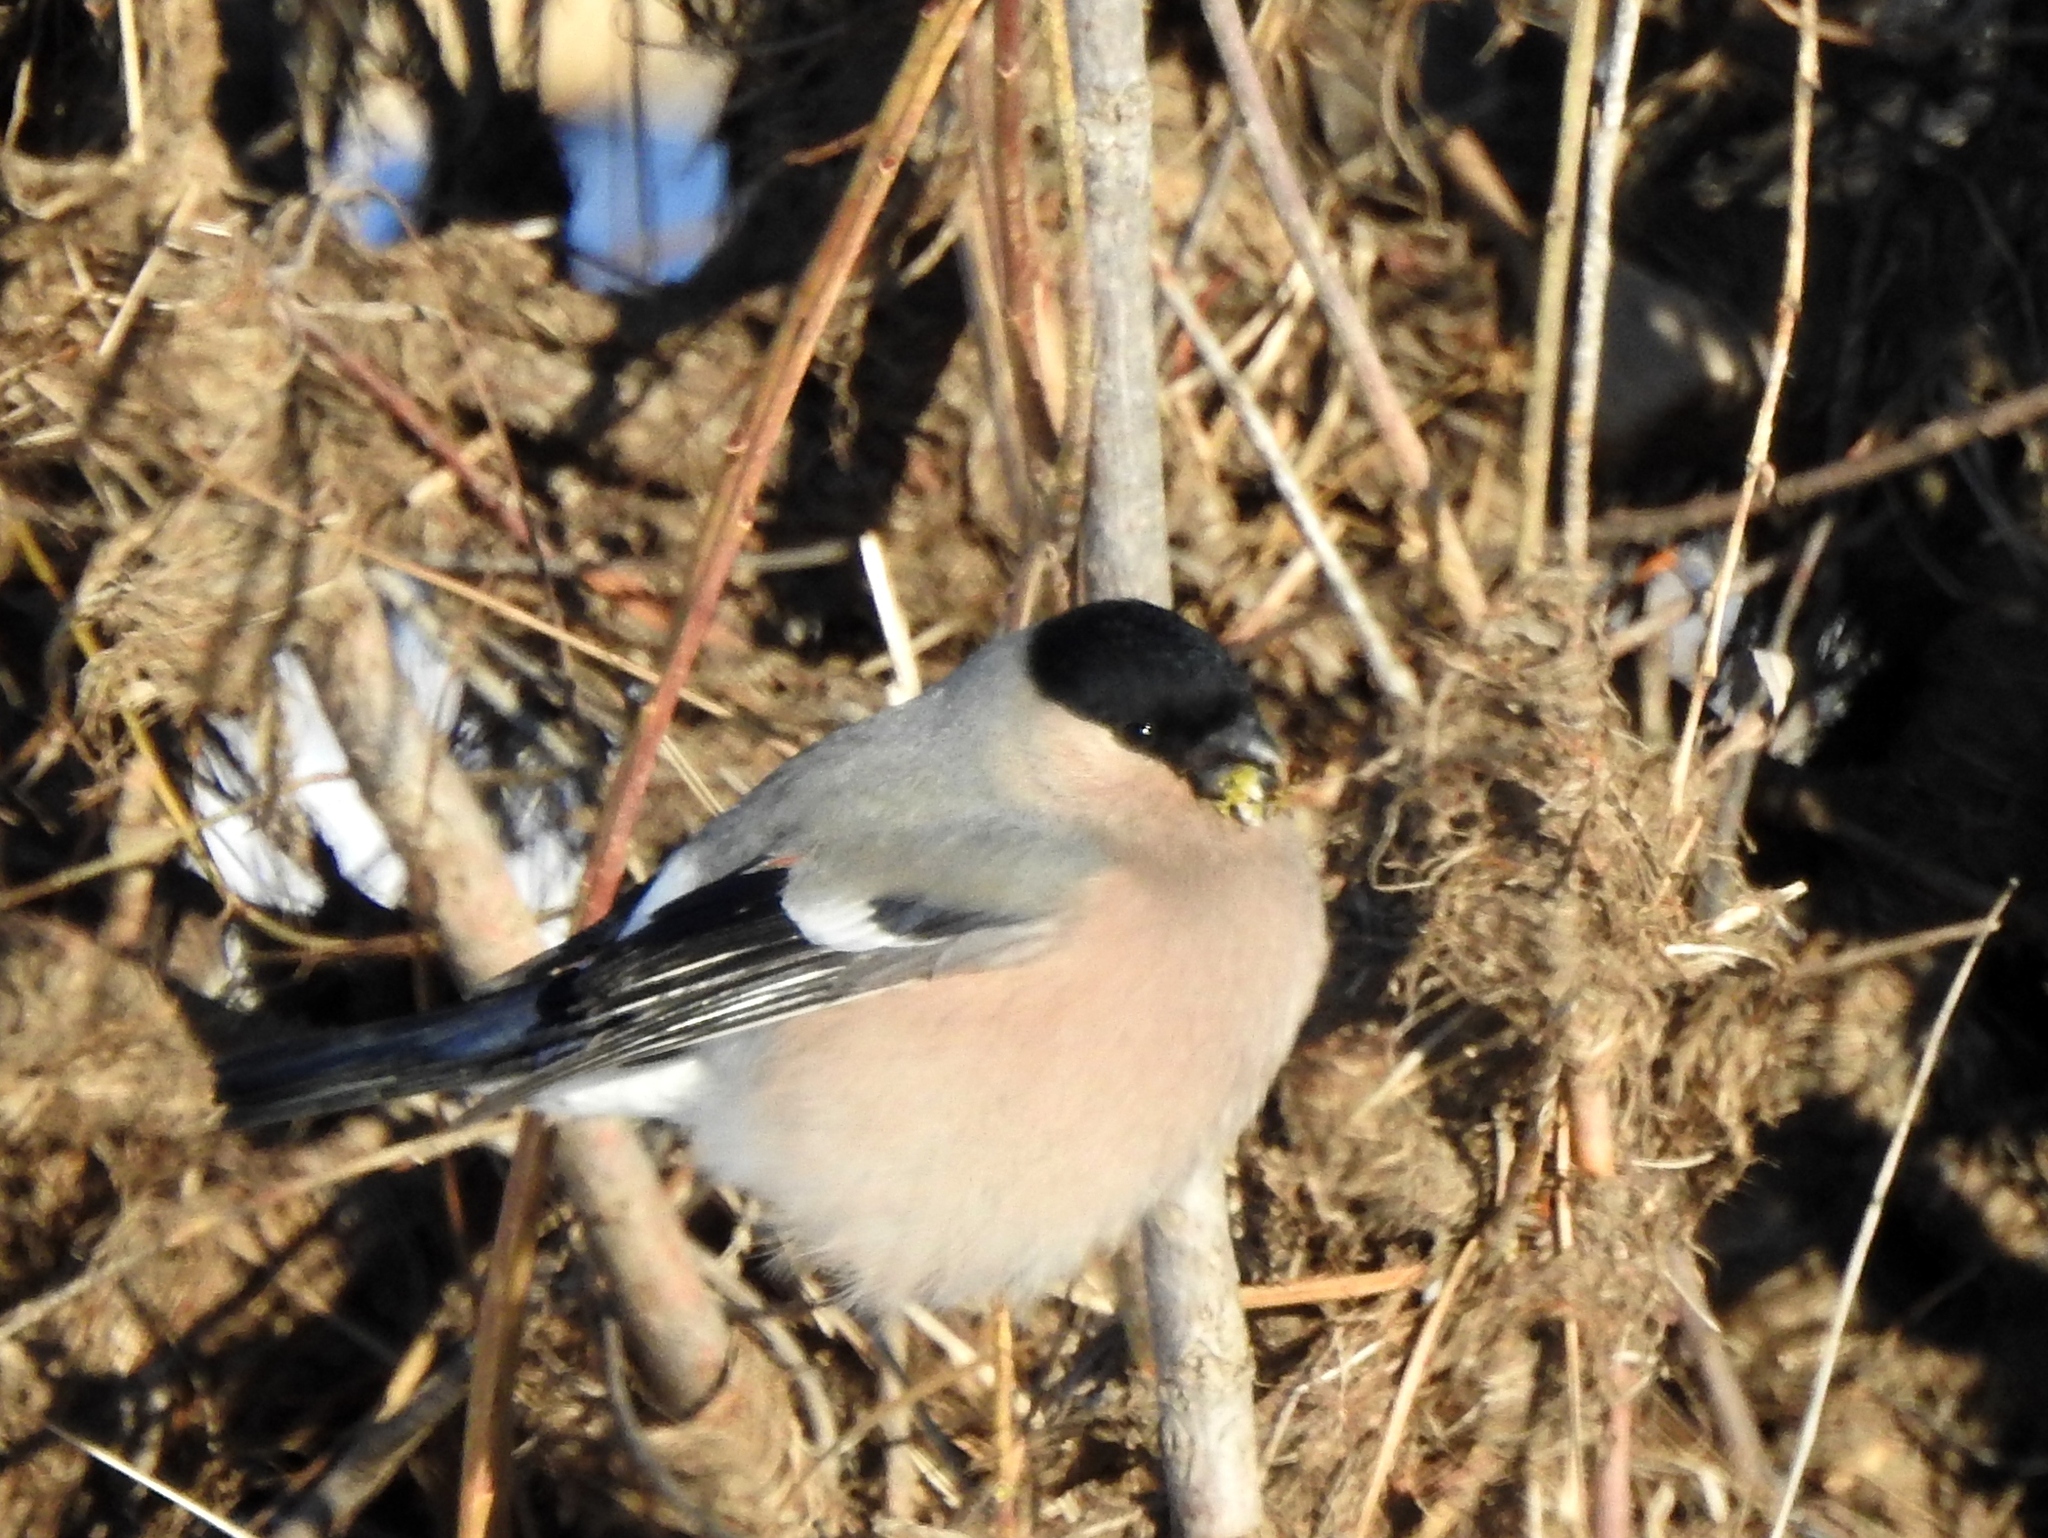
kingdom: Animalia
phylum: Chordata
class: Aves
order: Passeriformes
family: Fringillidae
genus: Pyrrhula
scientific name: Pyrrhula pyrrhula
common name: Eurasian bullfinch
